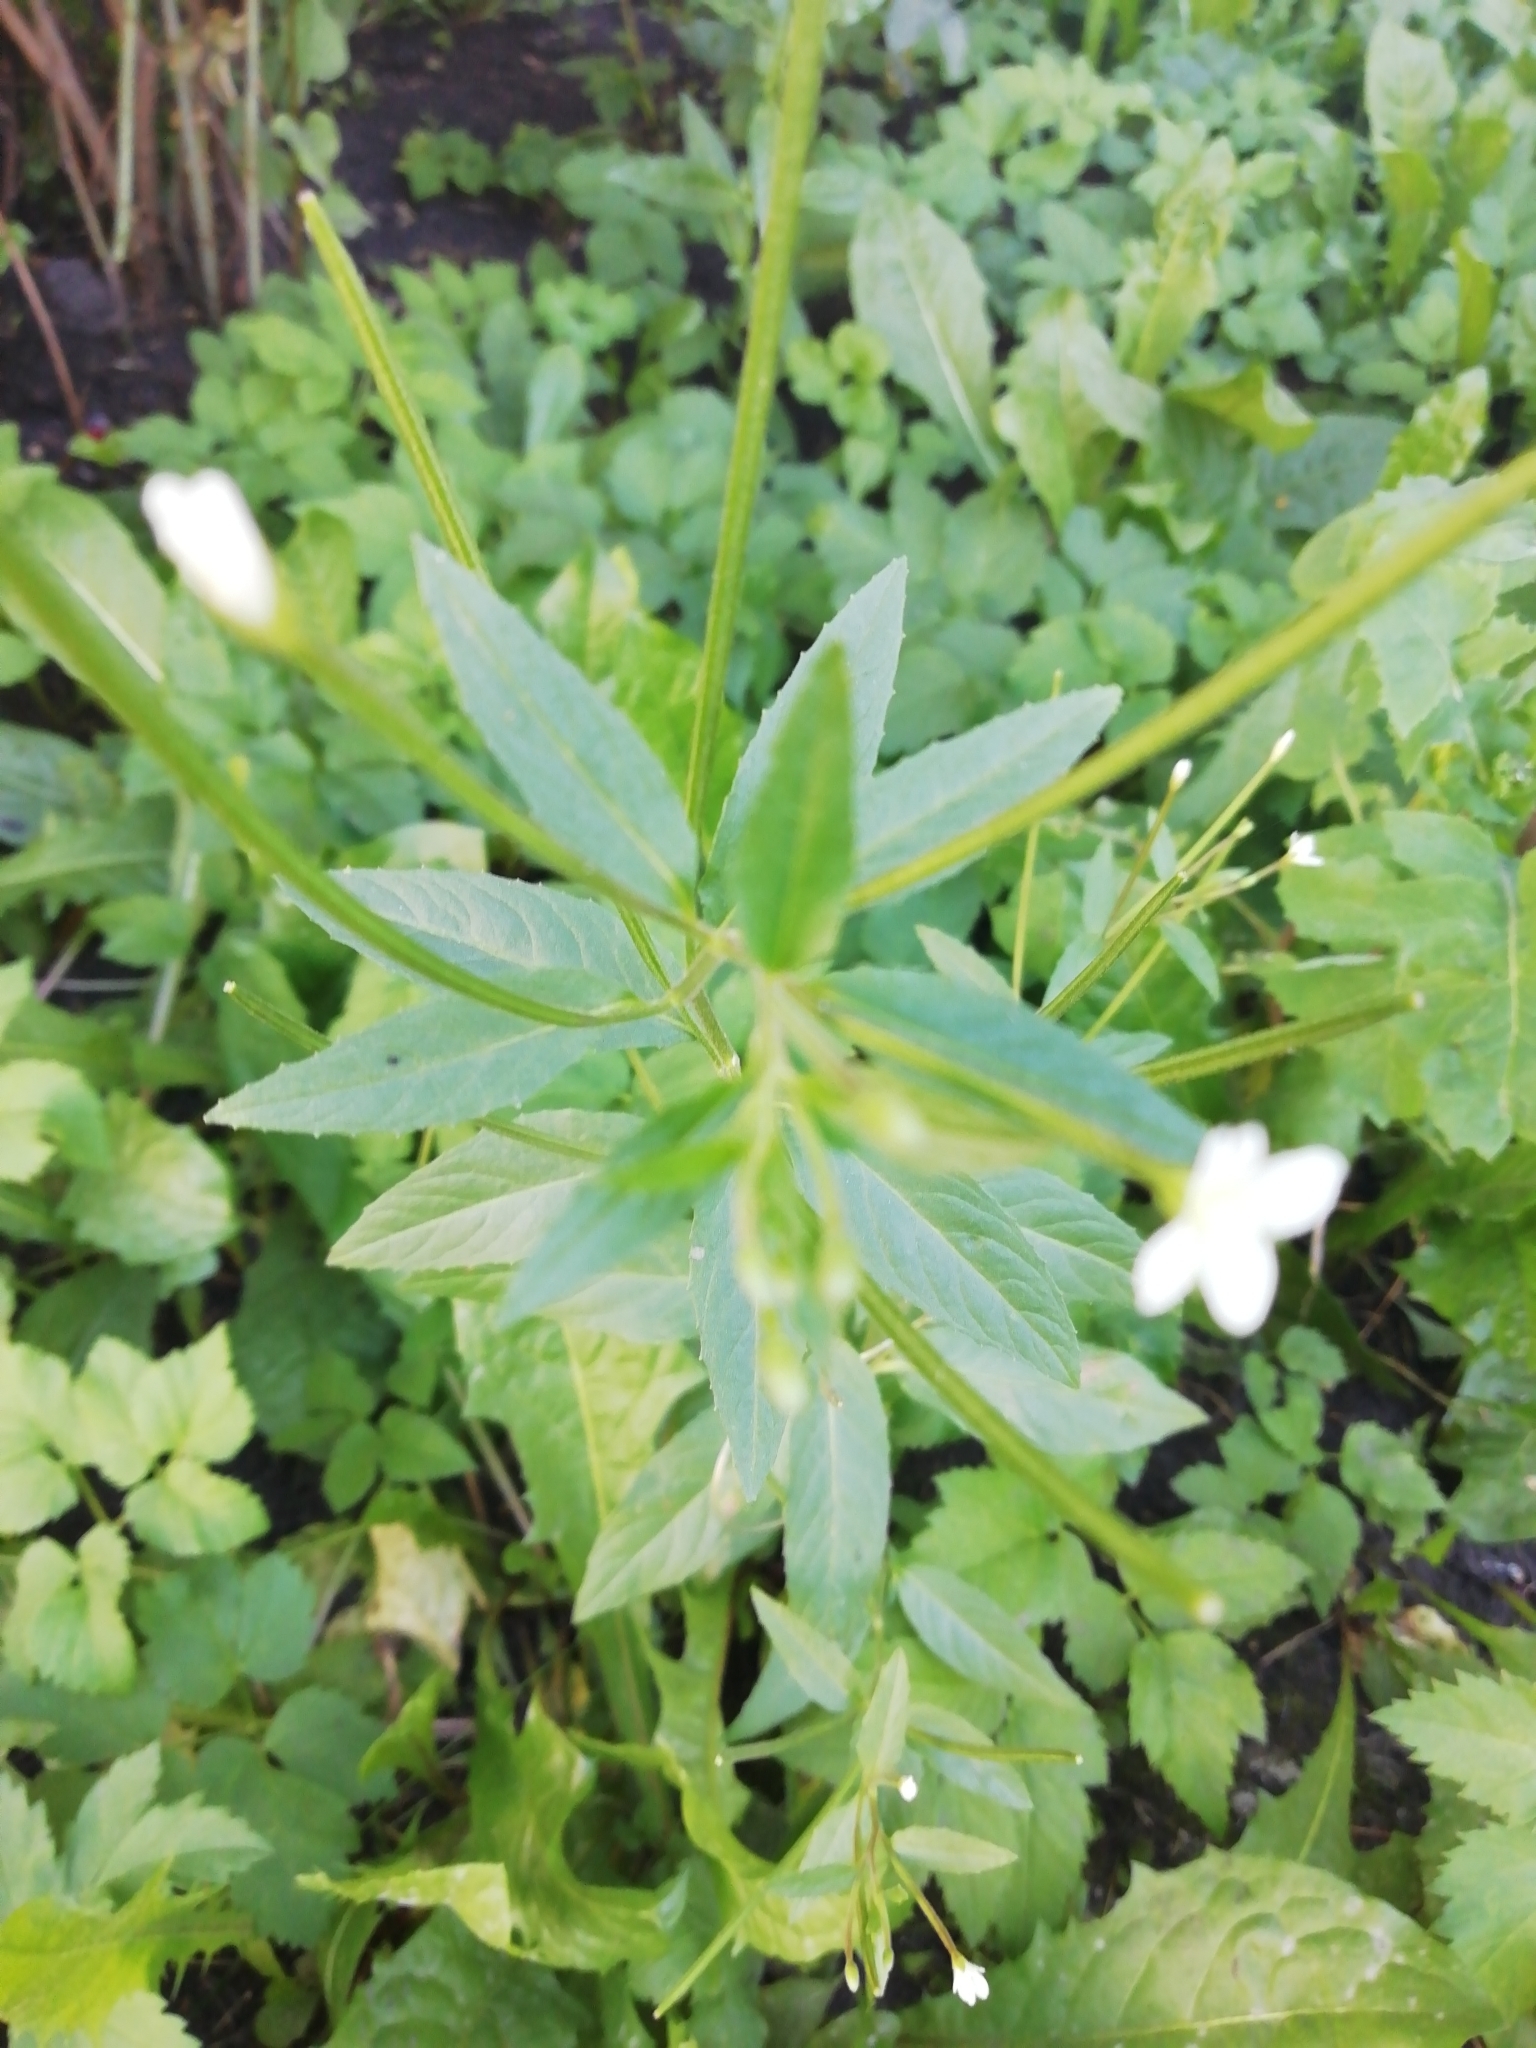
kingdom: Plantae
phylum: Tracheophyta
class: Magnoliopsida
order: Myrtales
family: Onagraceae
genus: Epilobium
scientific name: Epilobium pseudorubescens
